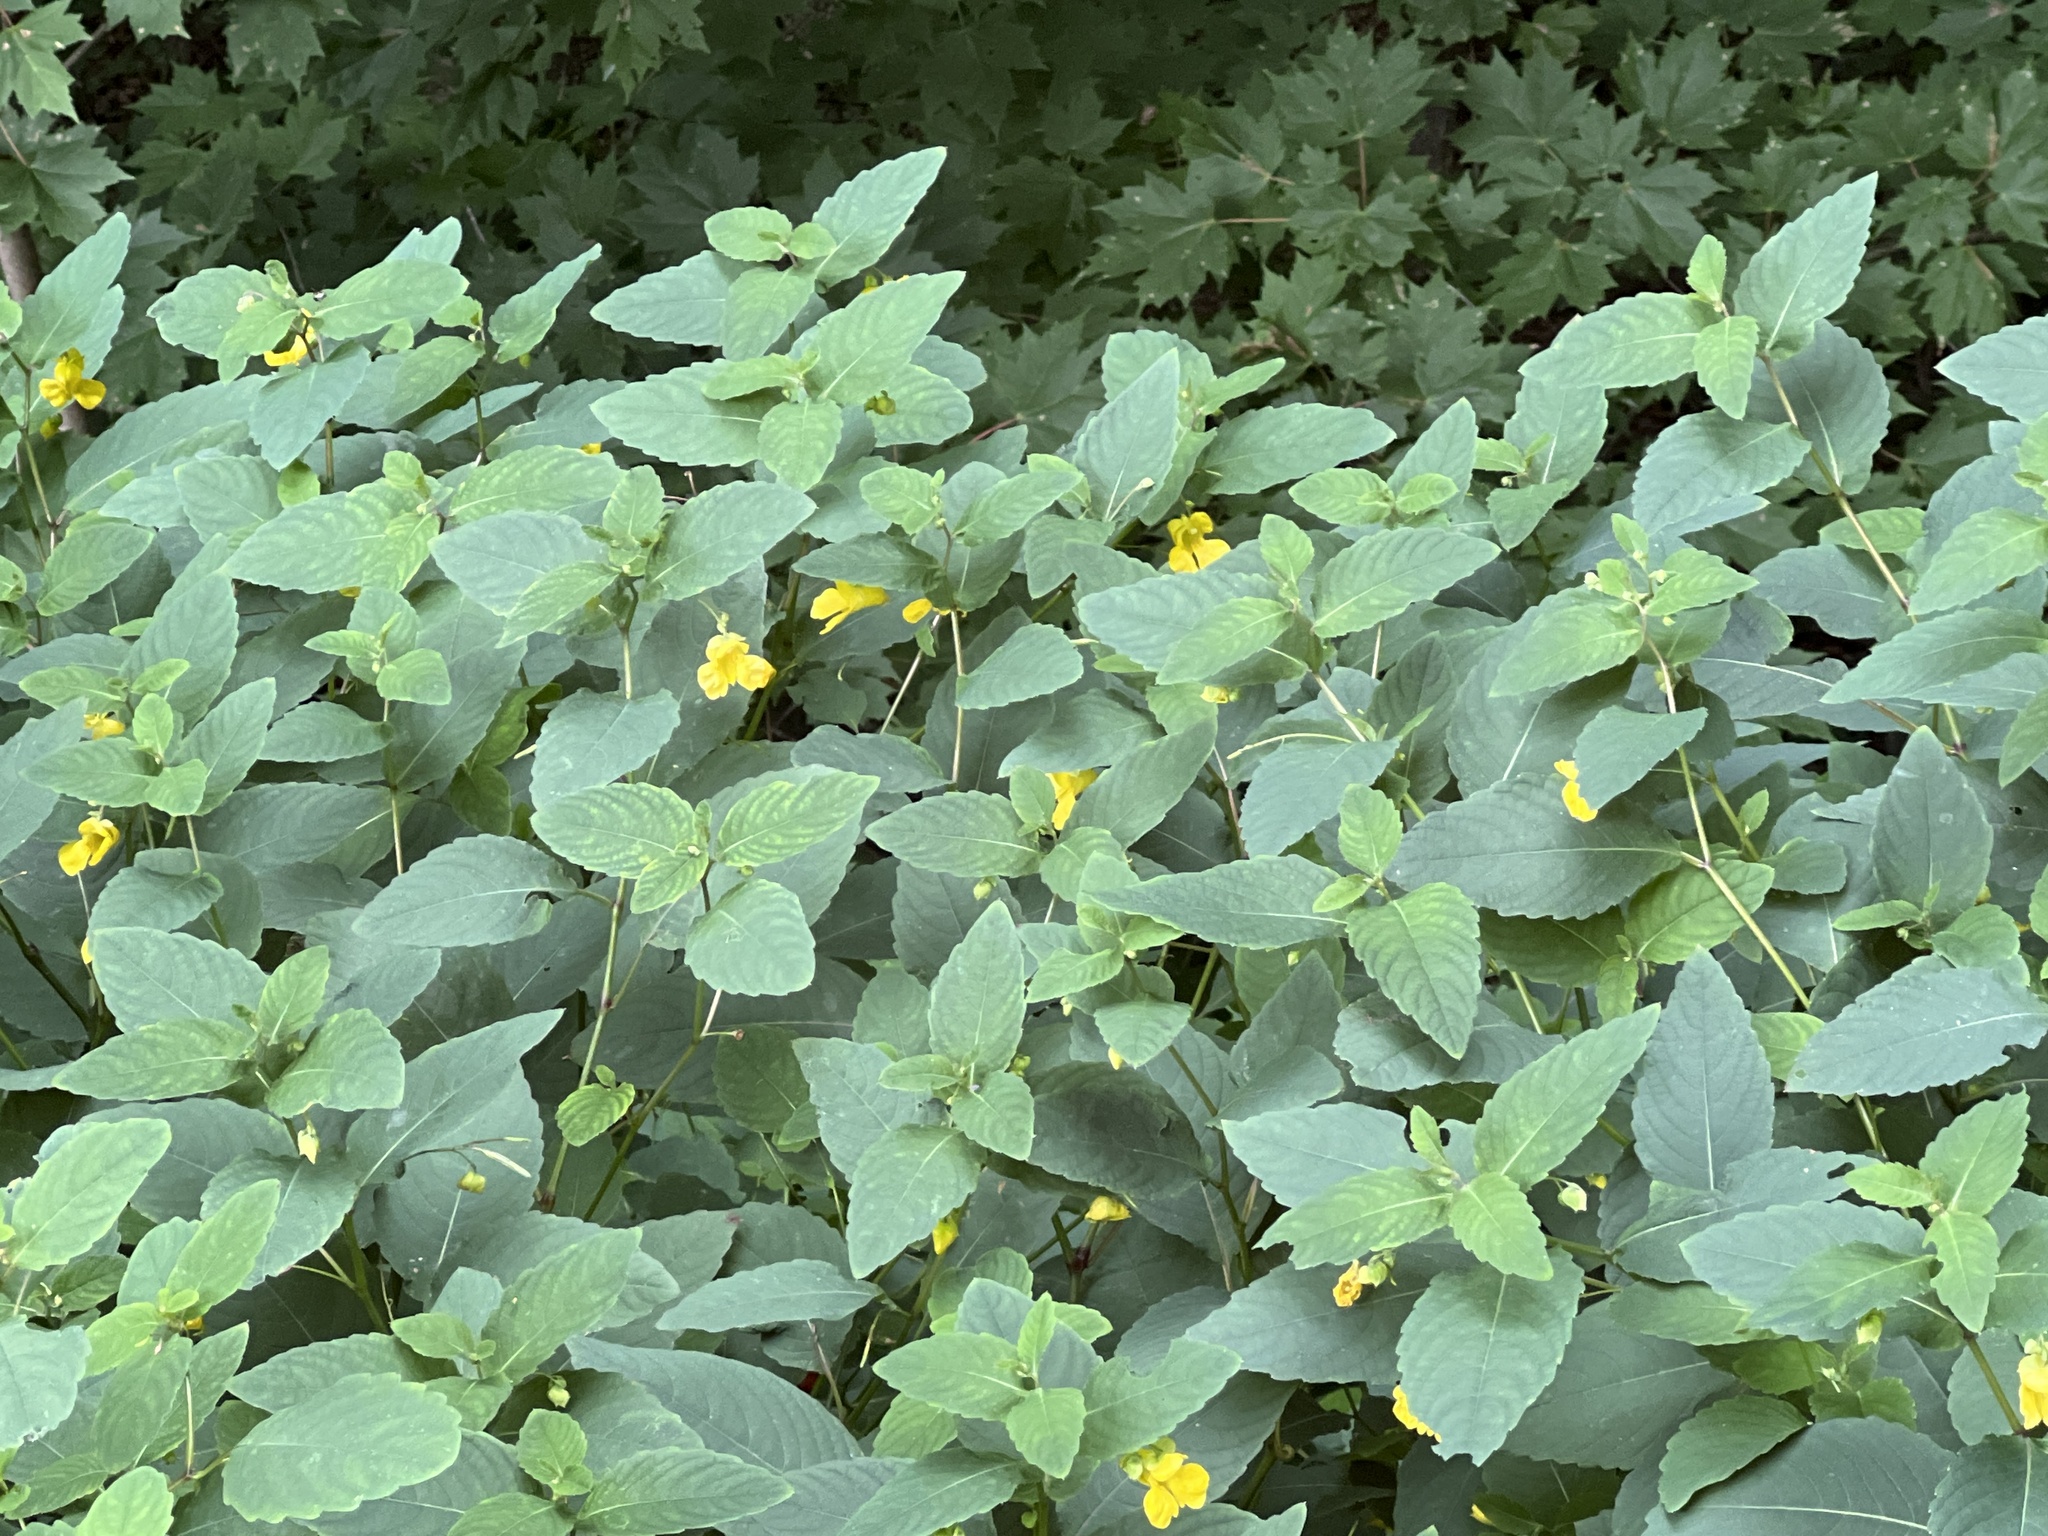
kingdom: Plantae
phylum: Tracheophyta
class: Magnoliopsida
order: Ericales
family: Balsaminaceae
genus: Impatiens
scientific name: Impatiens pallida
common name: Pale snapweed
